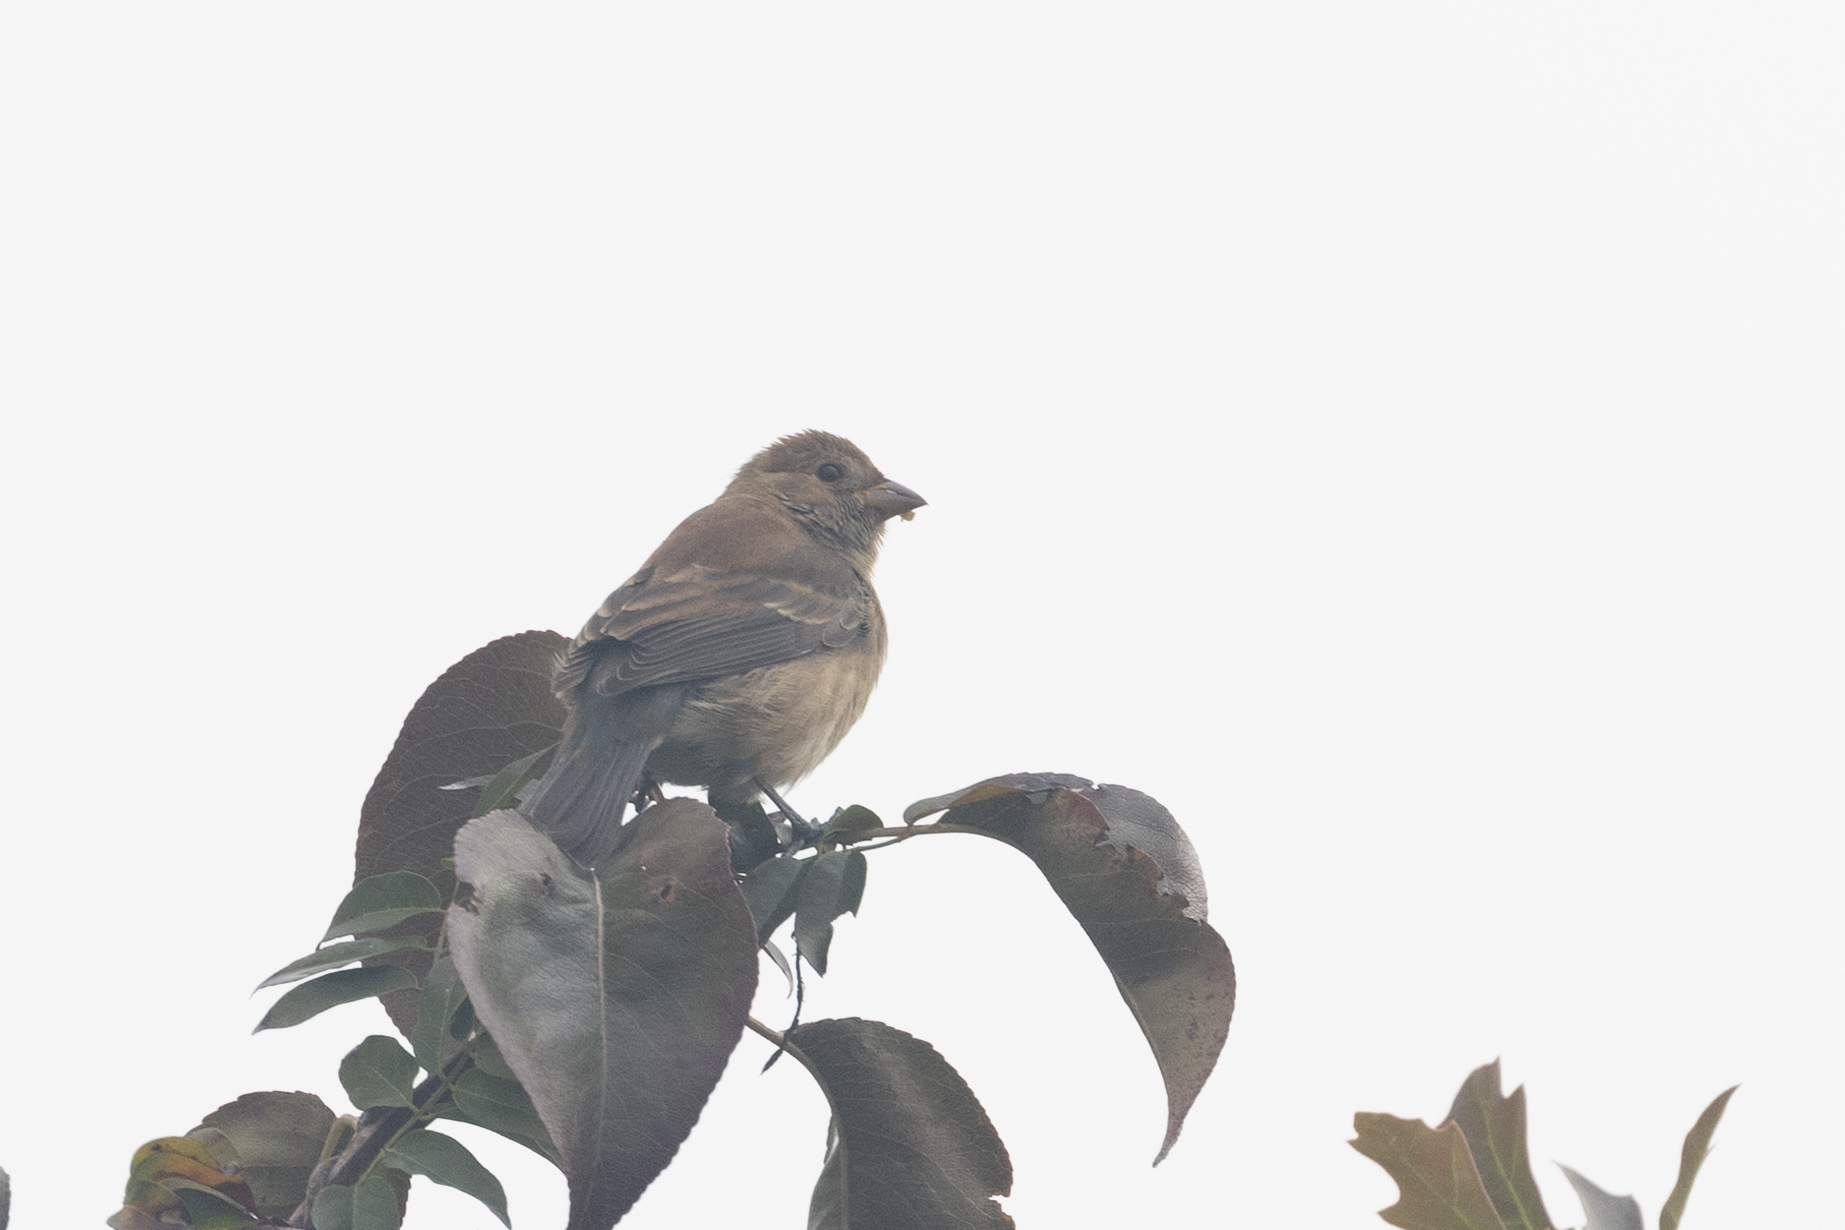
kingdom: Animalia
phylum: Chordata
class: Aves
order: Passeriformes
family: Cardinalidae
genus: Passerina
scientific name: Passerina cyanea
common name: Indigo bunting
